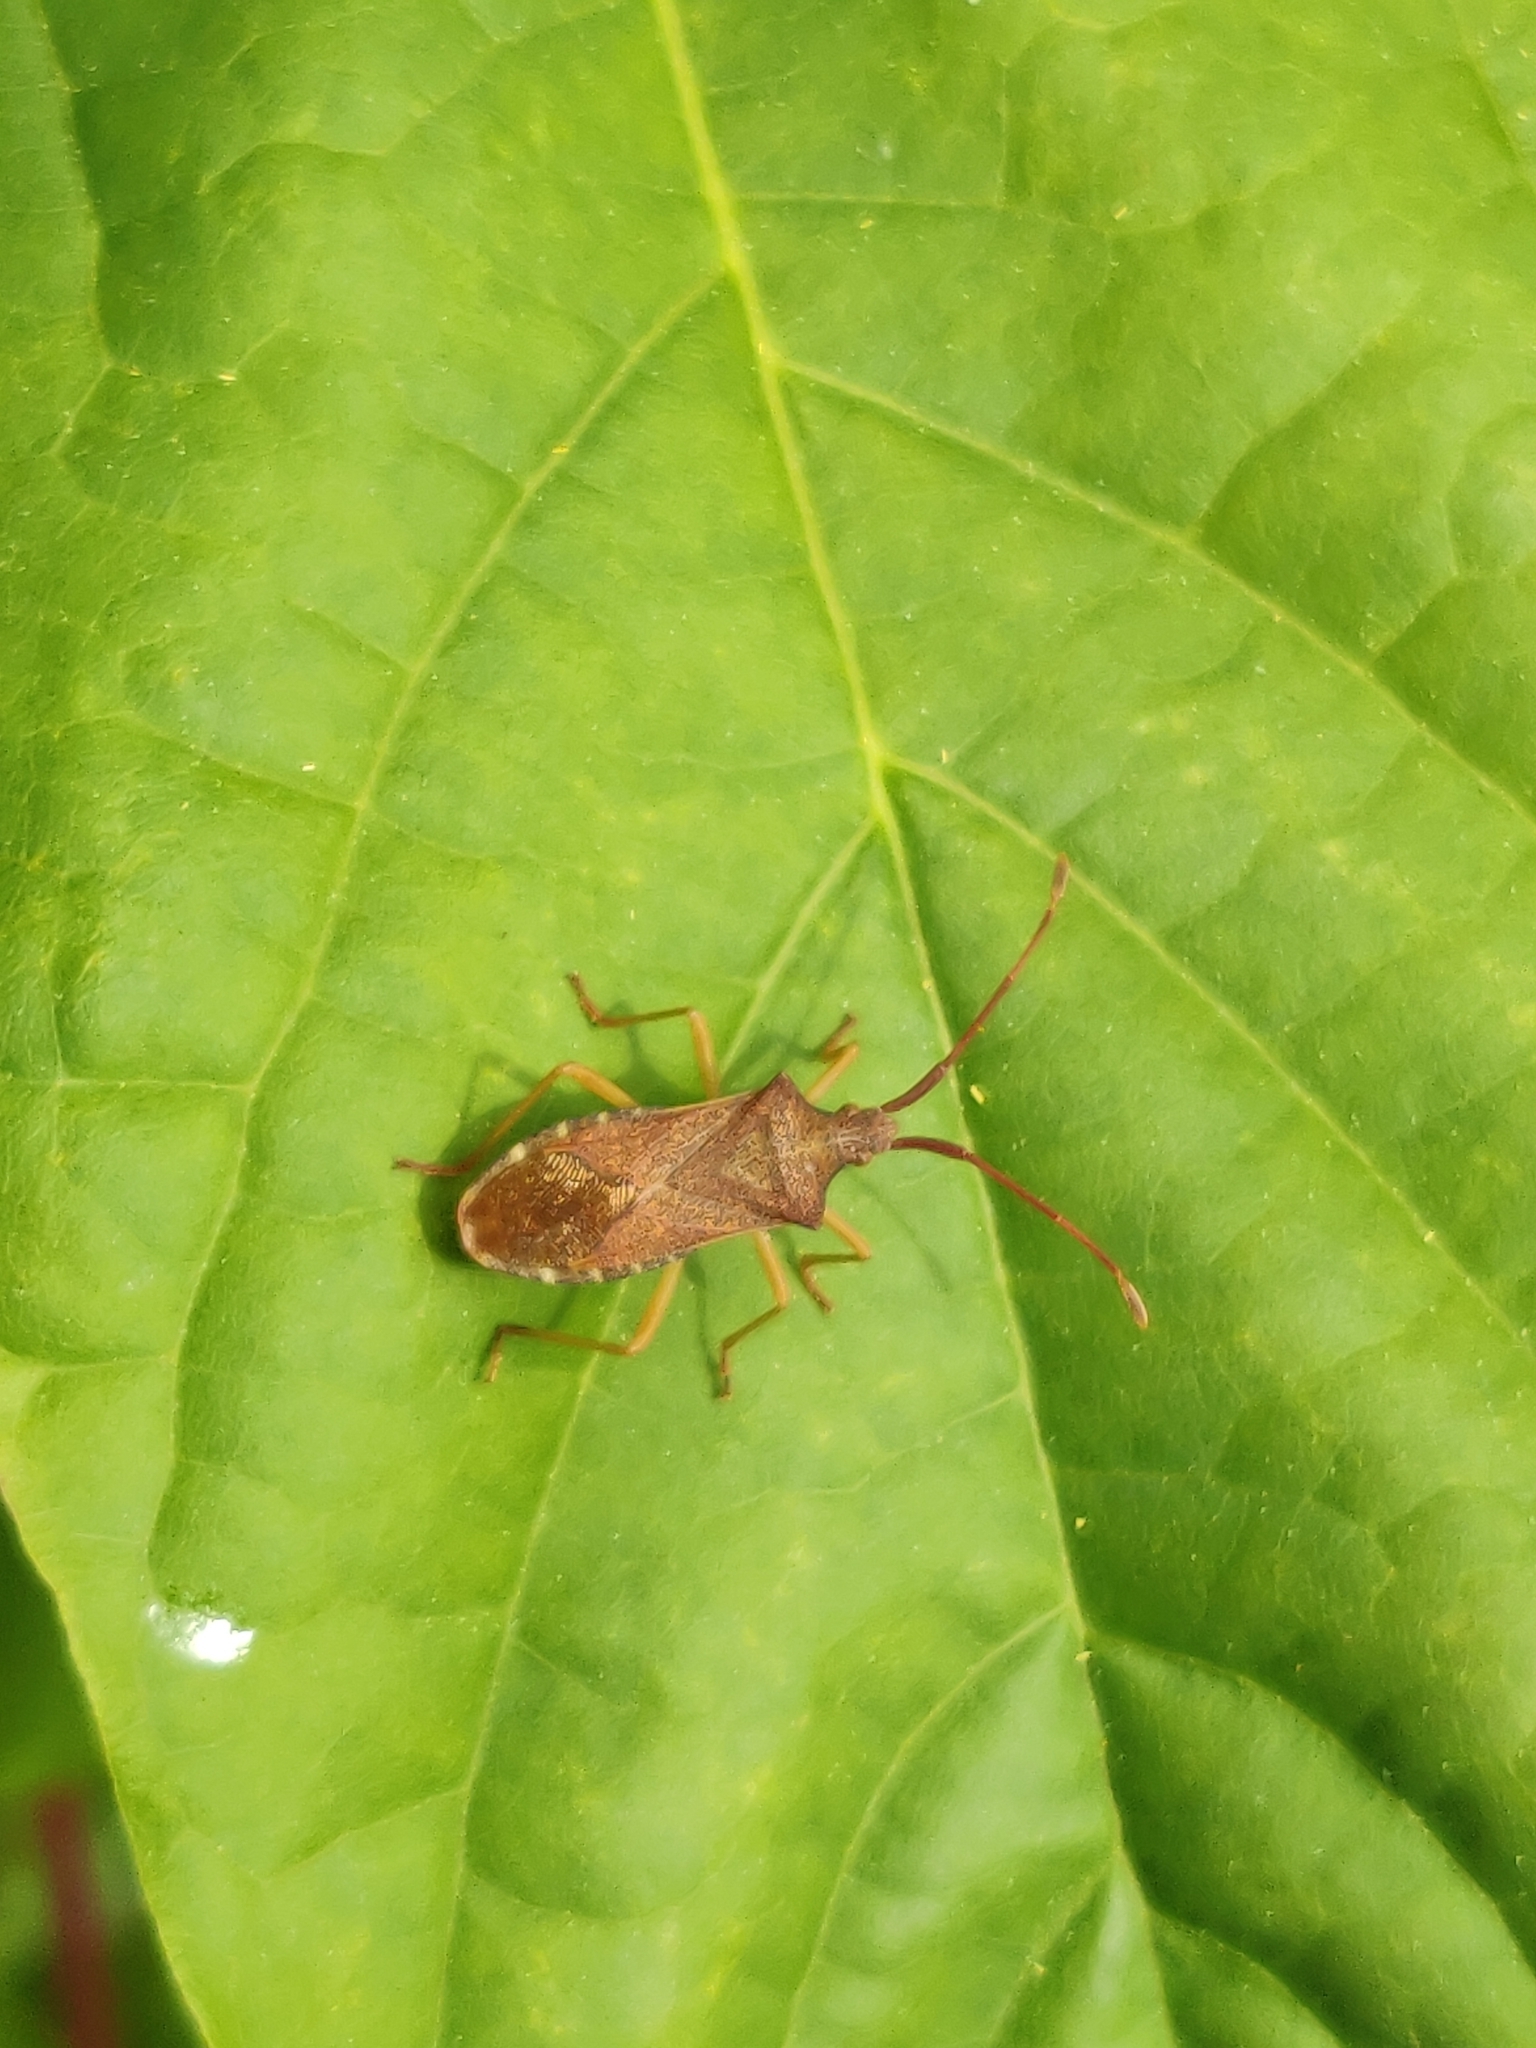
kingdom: Animalia
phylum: Arthropoda
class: Insecta
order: Hemiptera
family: Coreidae
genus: Gonocerus
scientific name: Gonocerus acuteangulatus
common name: Box bug
